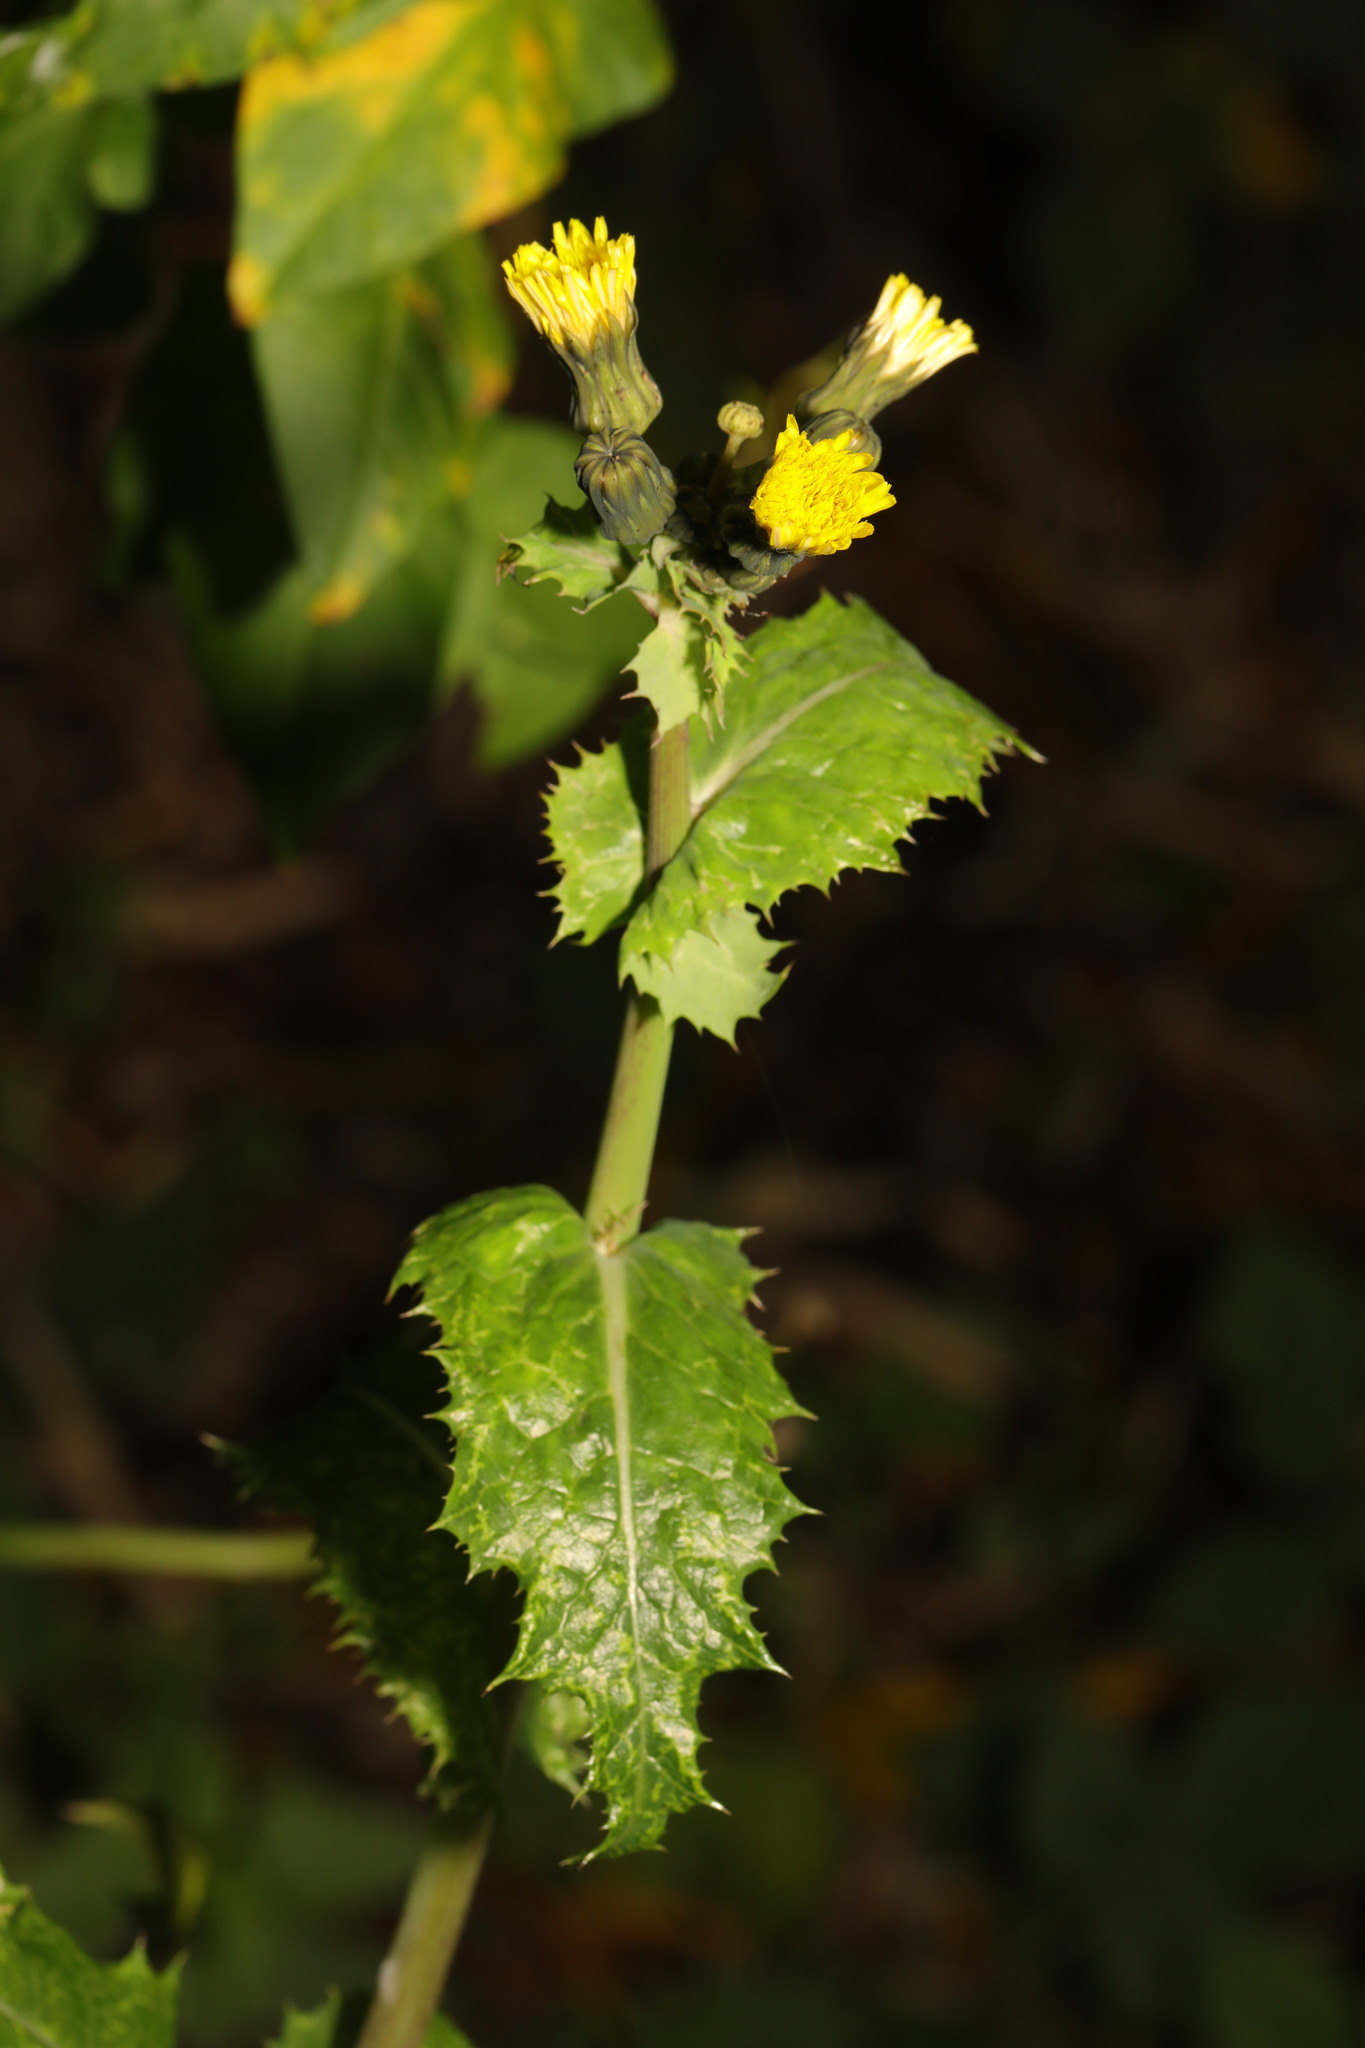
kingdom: Plantae
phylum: Tracheophyta
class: Magnoliopsida
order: Asterales
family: Asteraceae
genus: Sonchus
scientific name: Sonchus asper
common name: Prickly sow-thistle
